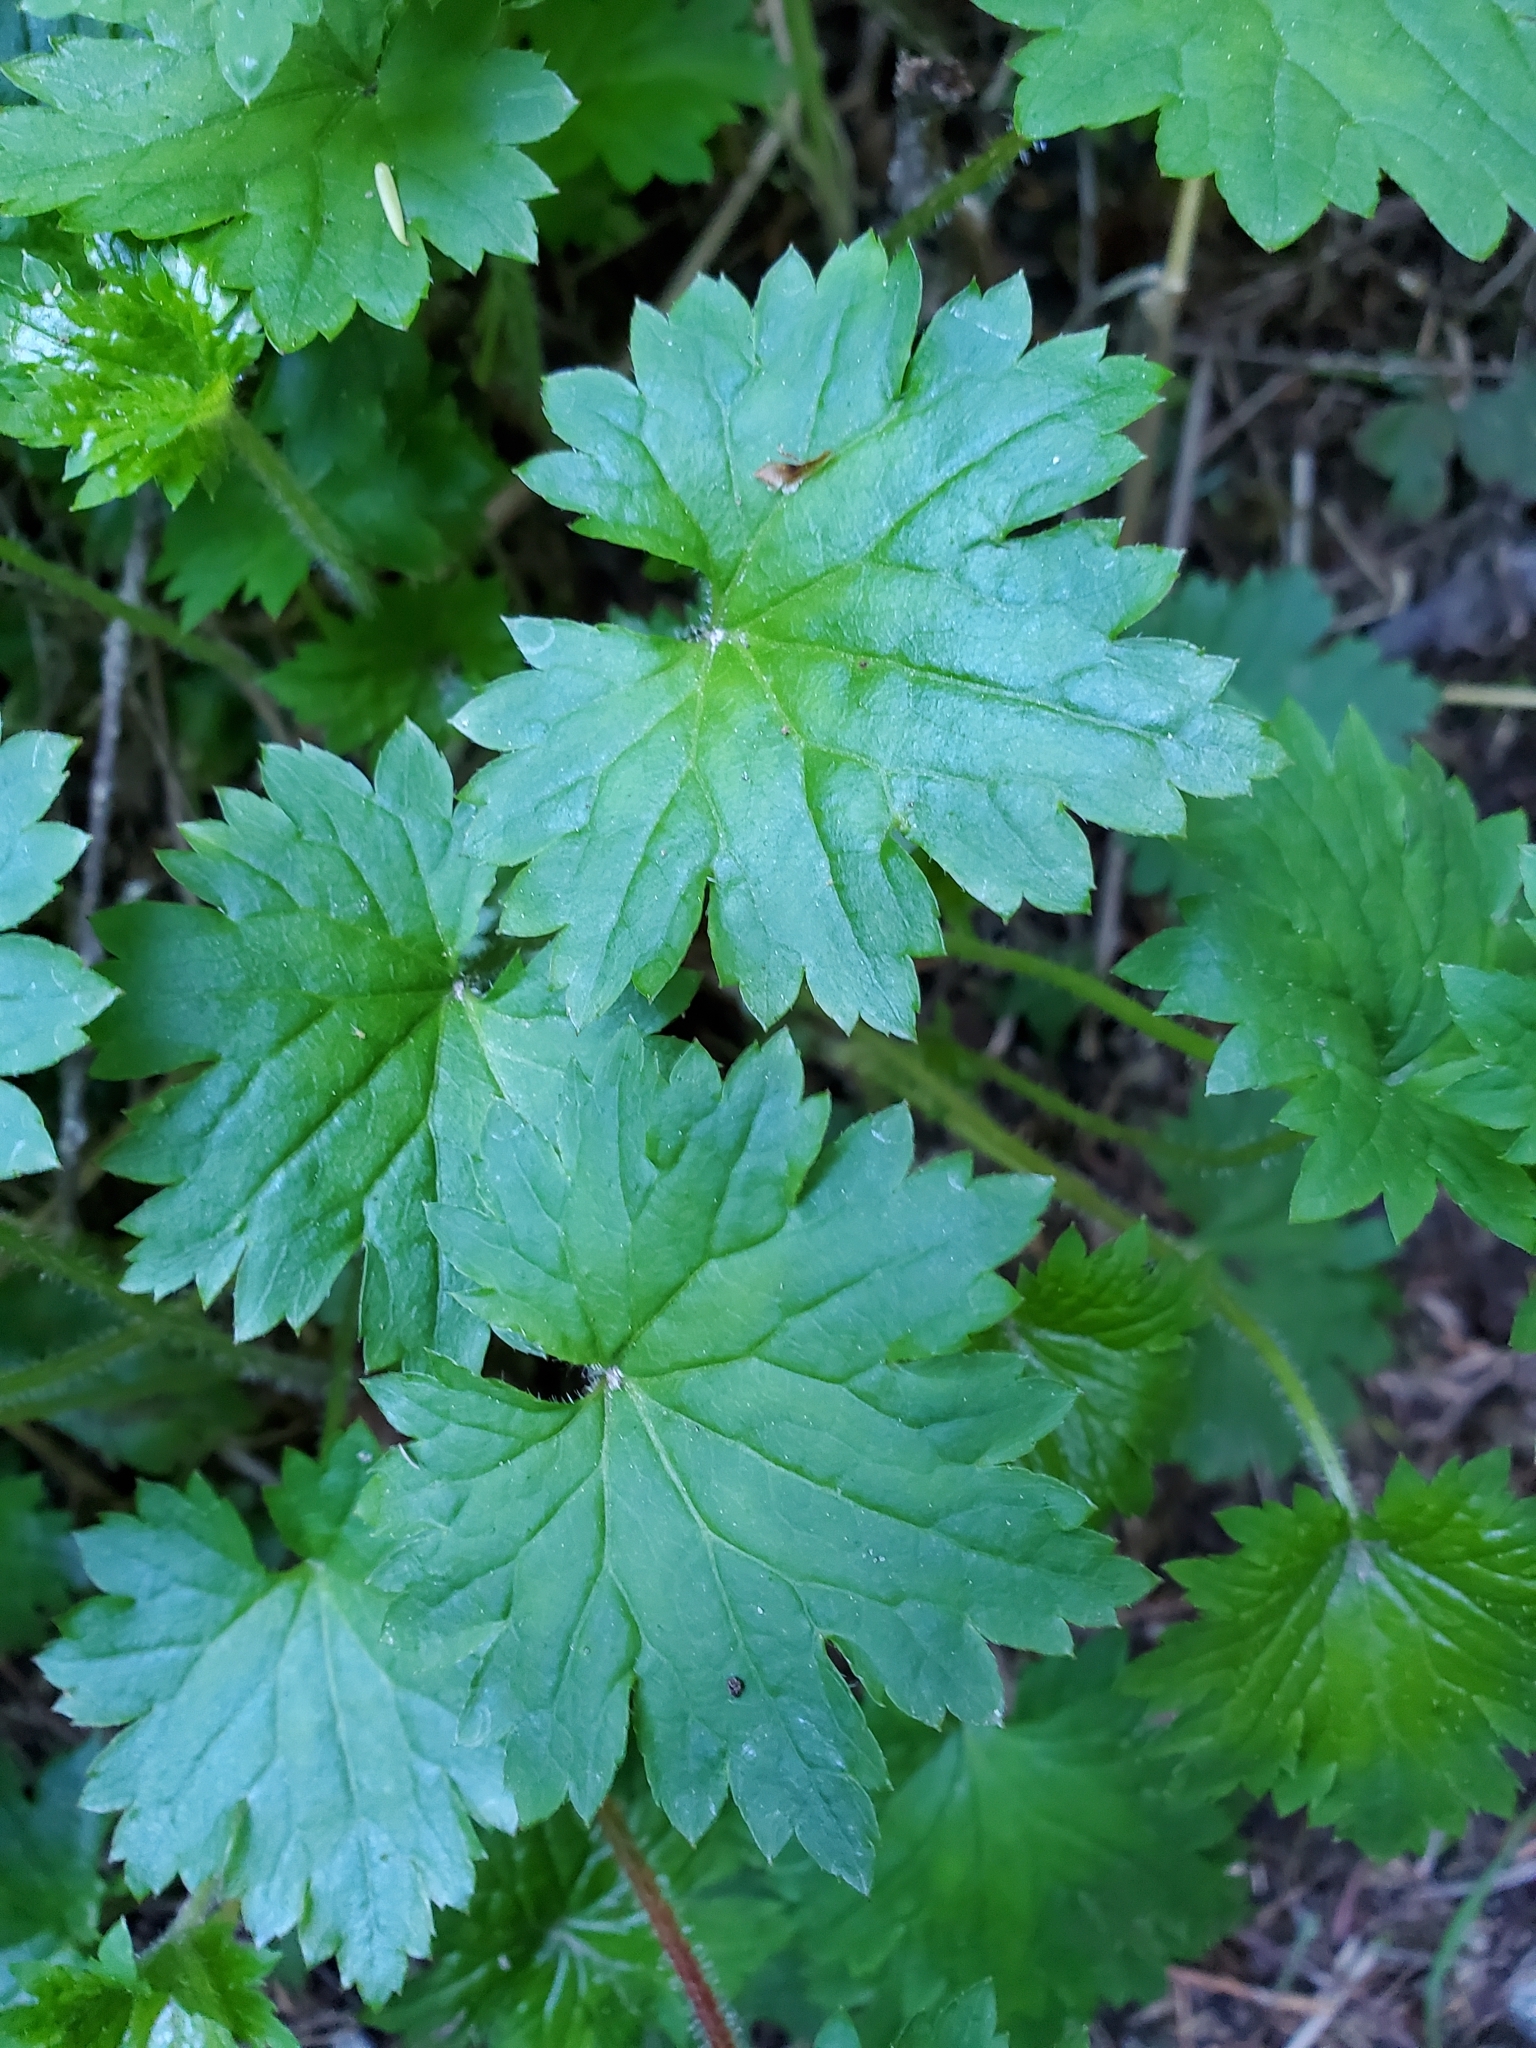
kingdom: Plantae
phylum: Tracheophyta
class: Magnoliopsida
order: Saxifragales
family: Saxifragaceae
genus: Boykinia
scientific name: Boykinia occidentalis
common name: Coast boykinia
